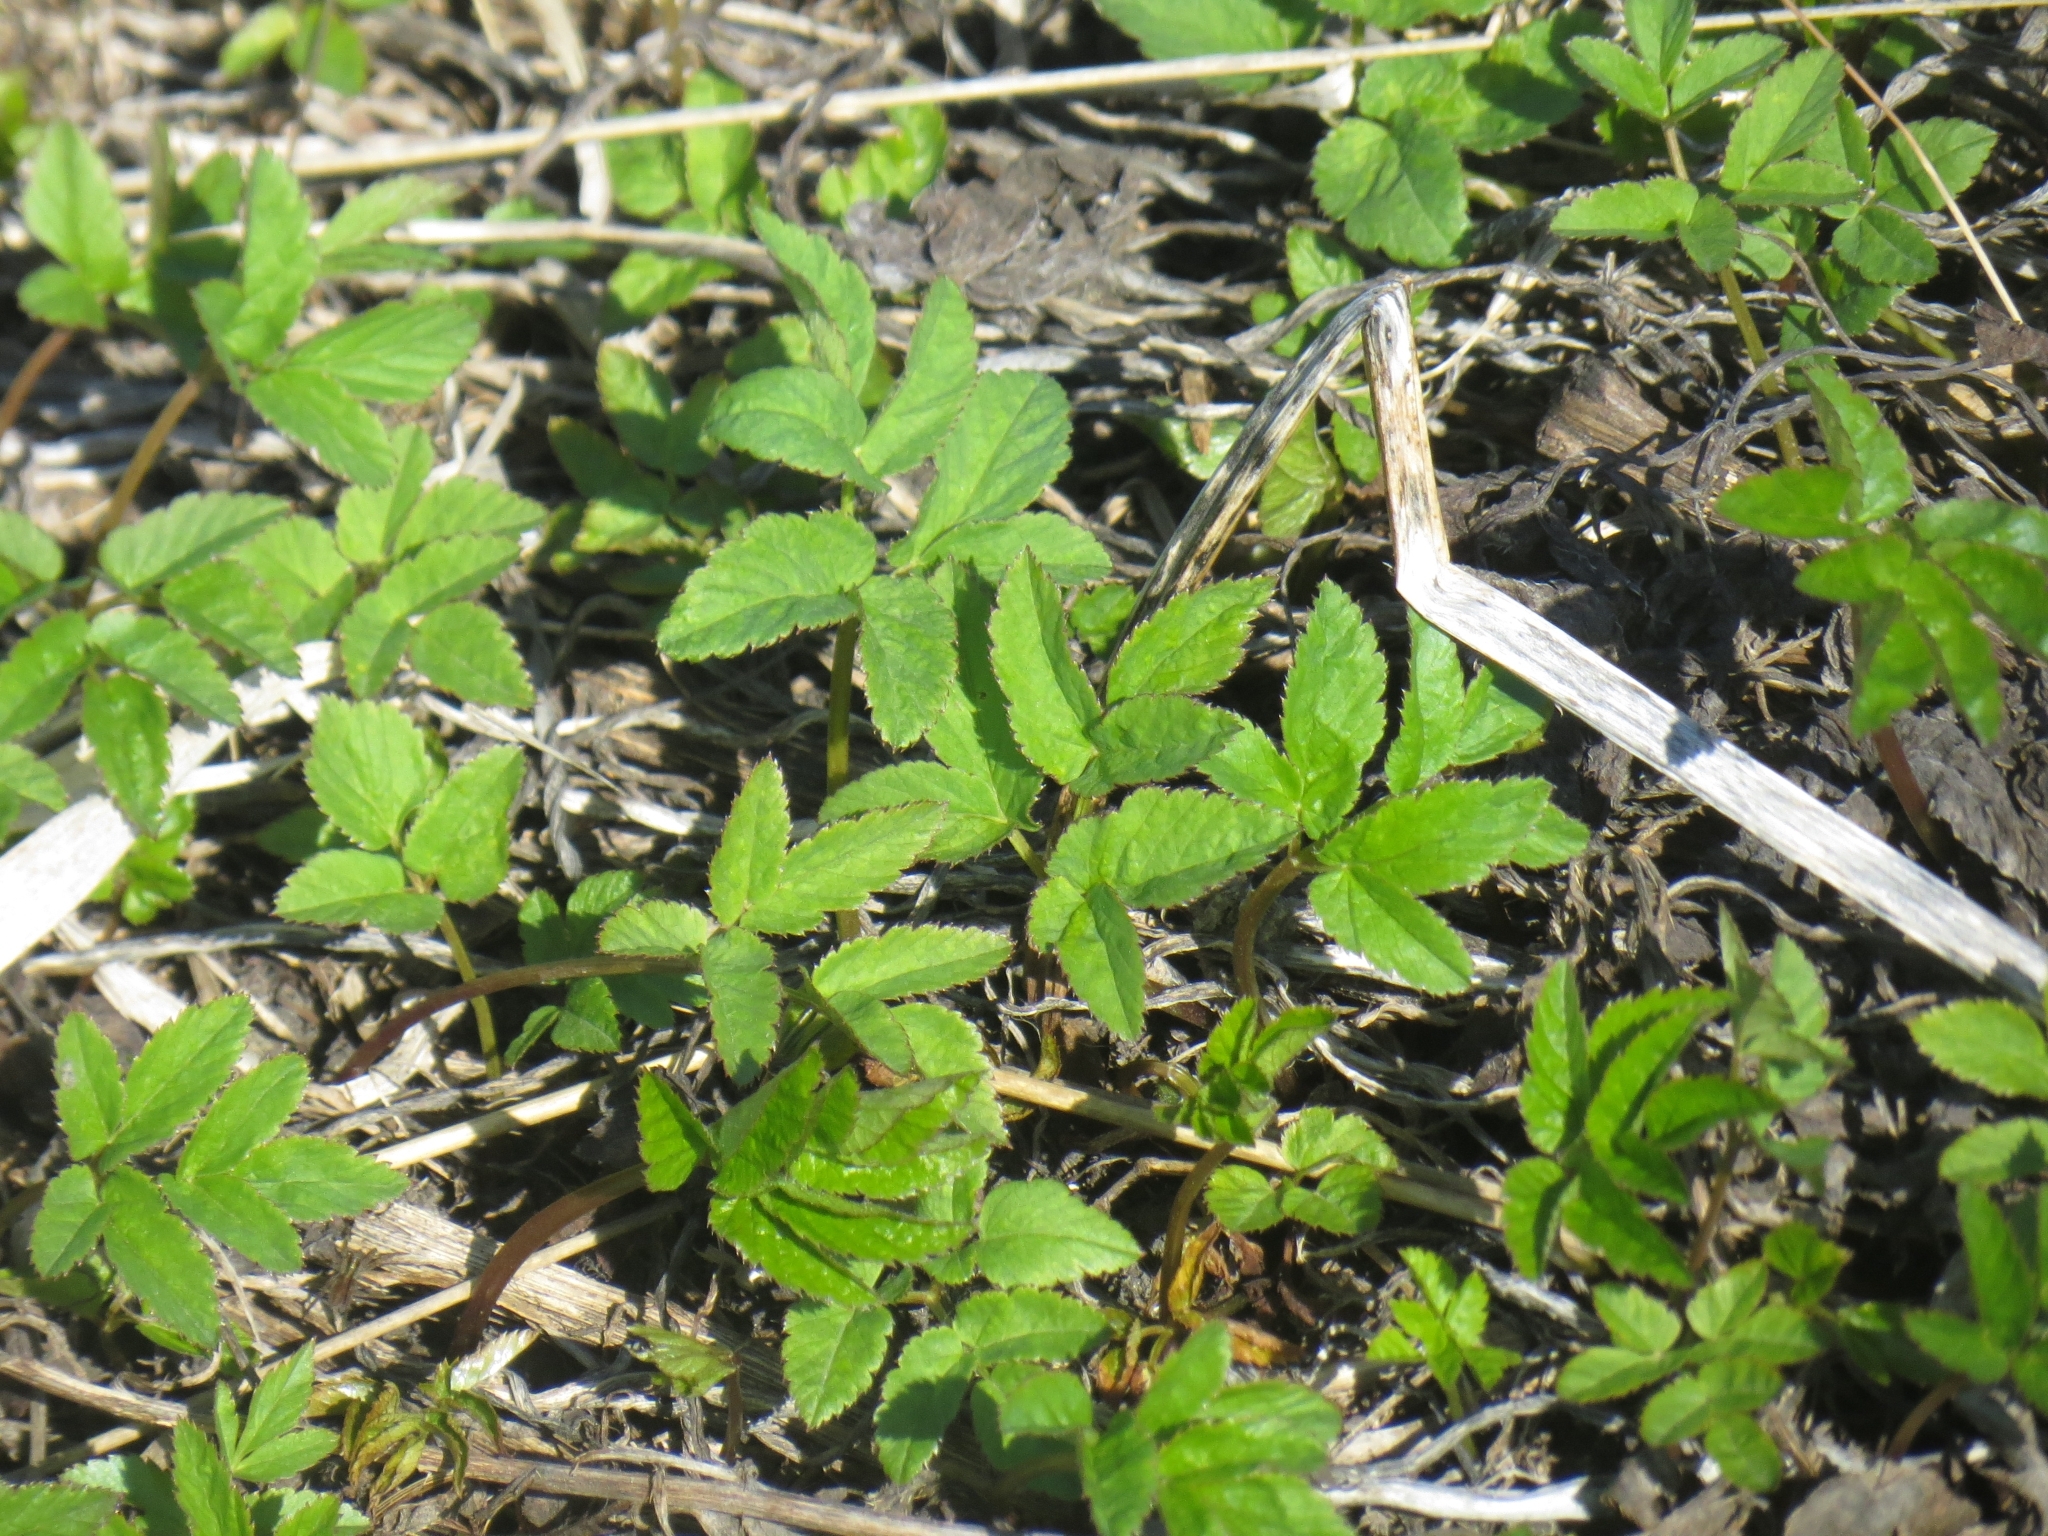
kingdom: Plantae
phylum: Tracheophyta
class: Magnoliopsida
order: Apiales
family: Apiaceae
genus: Aegopodium
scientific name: Aegopodium podagraria
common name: Ground-elder
